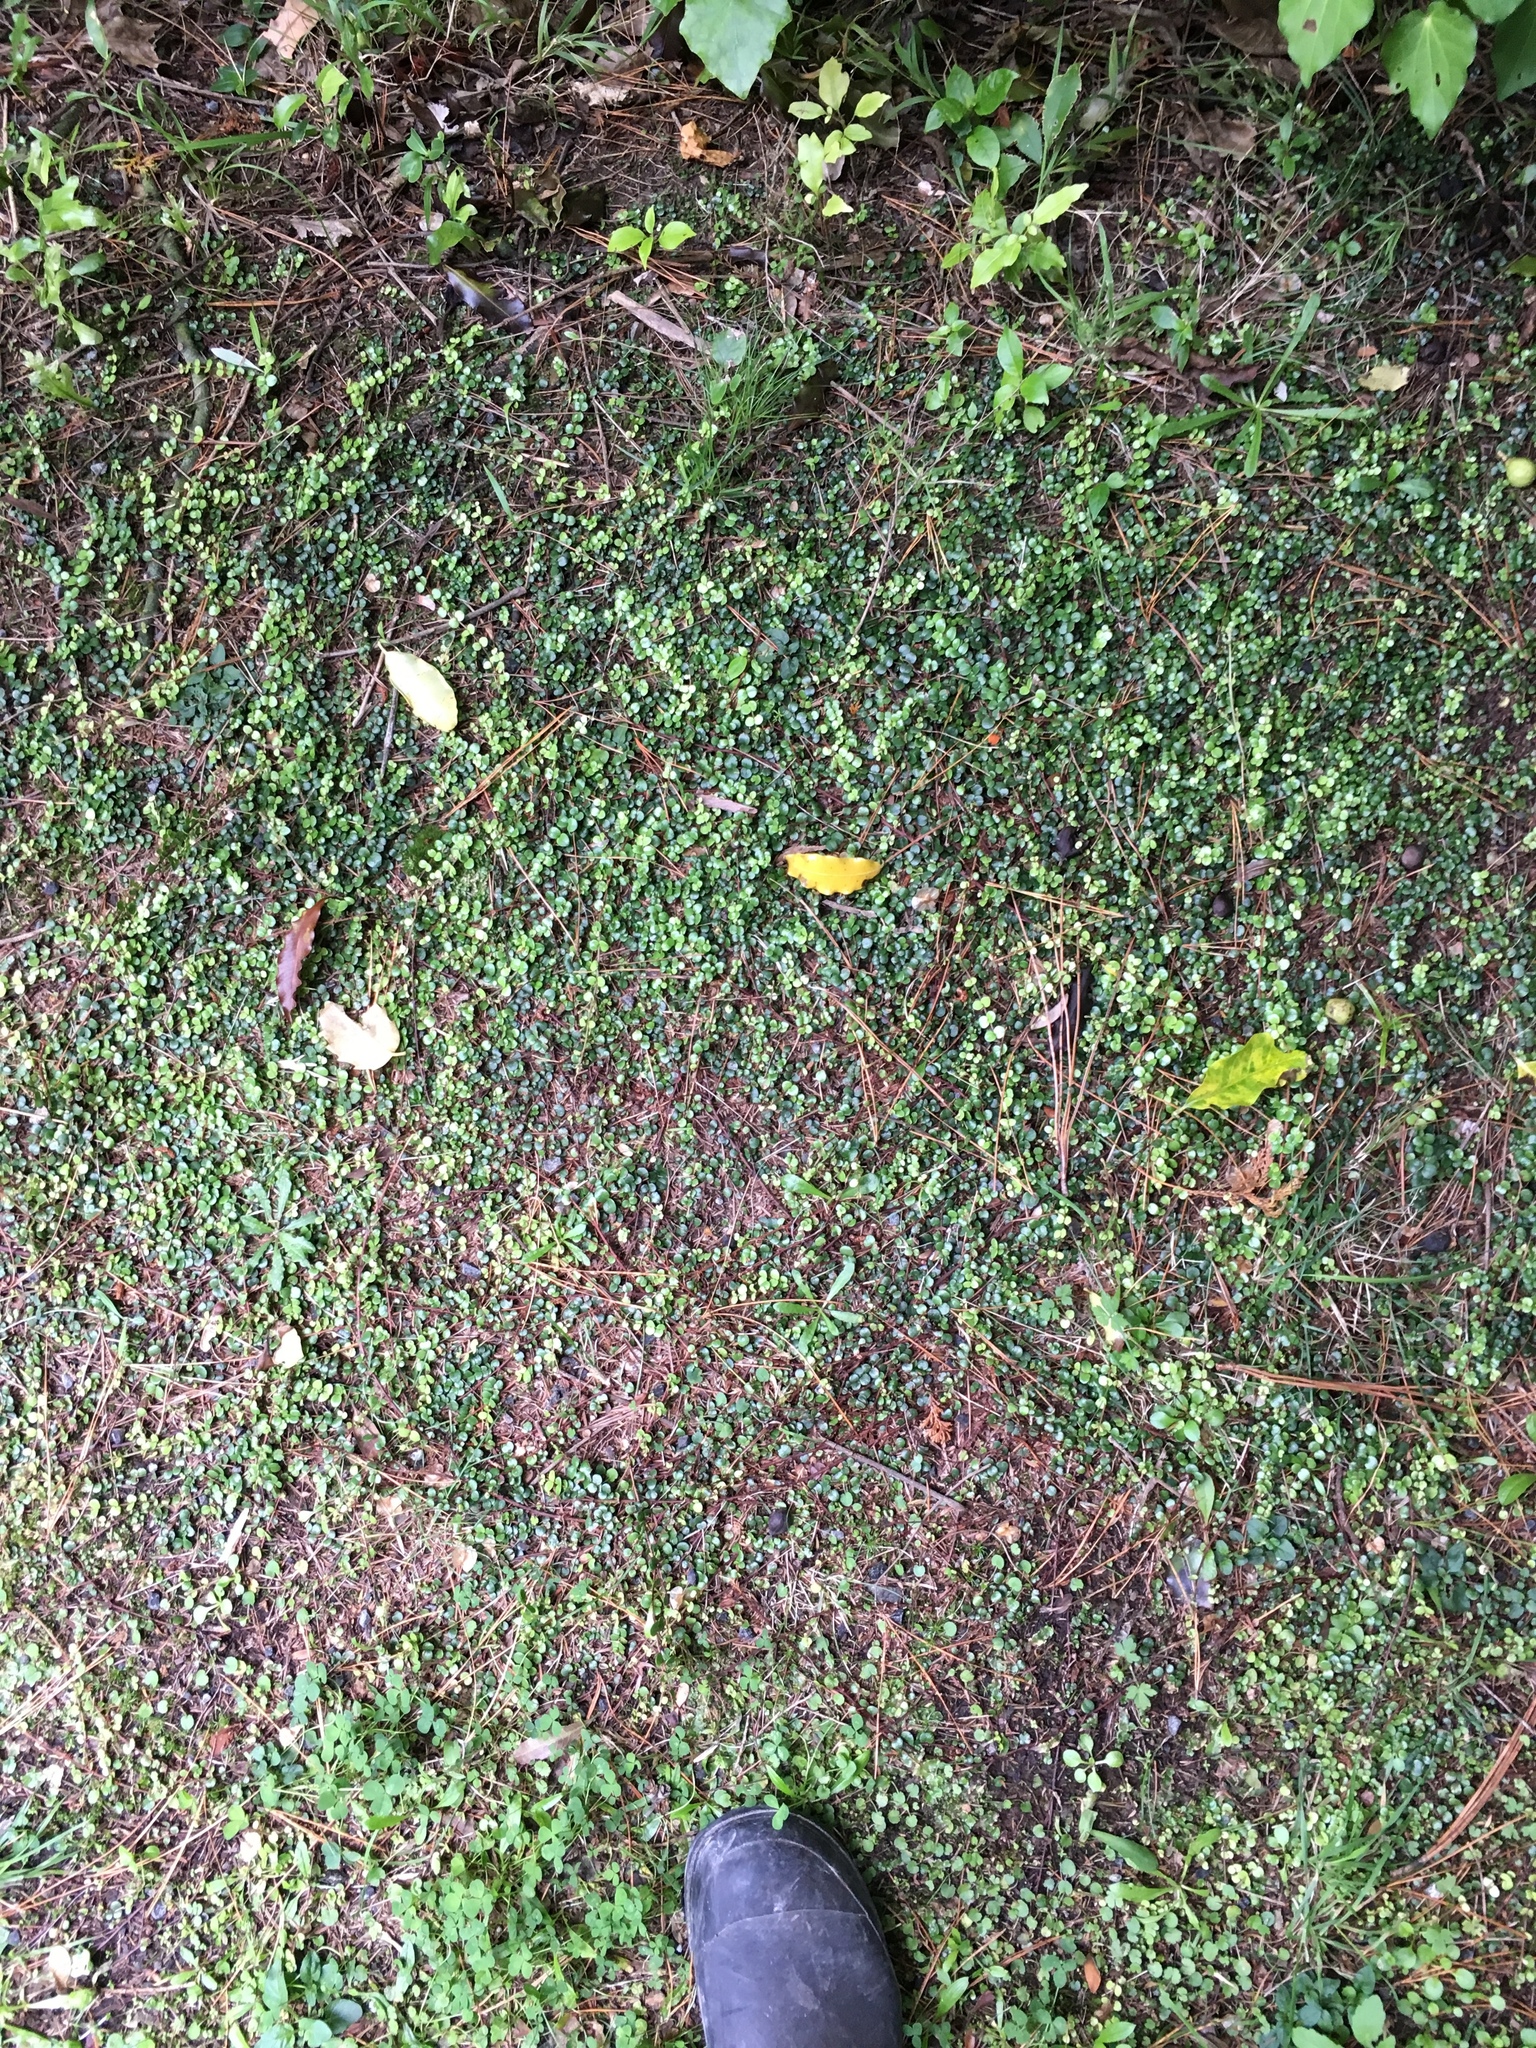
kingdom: Plantae
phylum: Tracheophyta
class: Magnoliopsida
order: Myrtales
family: Myrtaceae
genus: Metrosideros
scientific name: Metrosideros perforata
